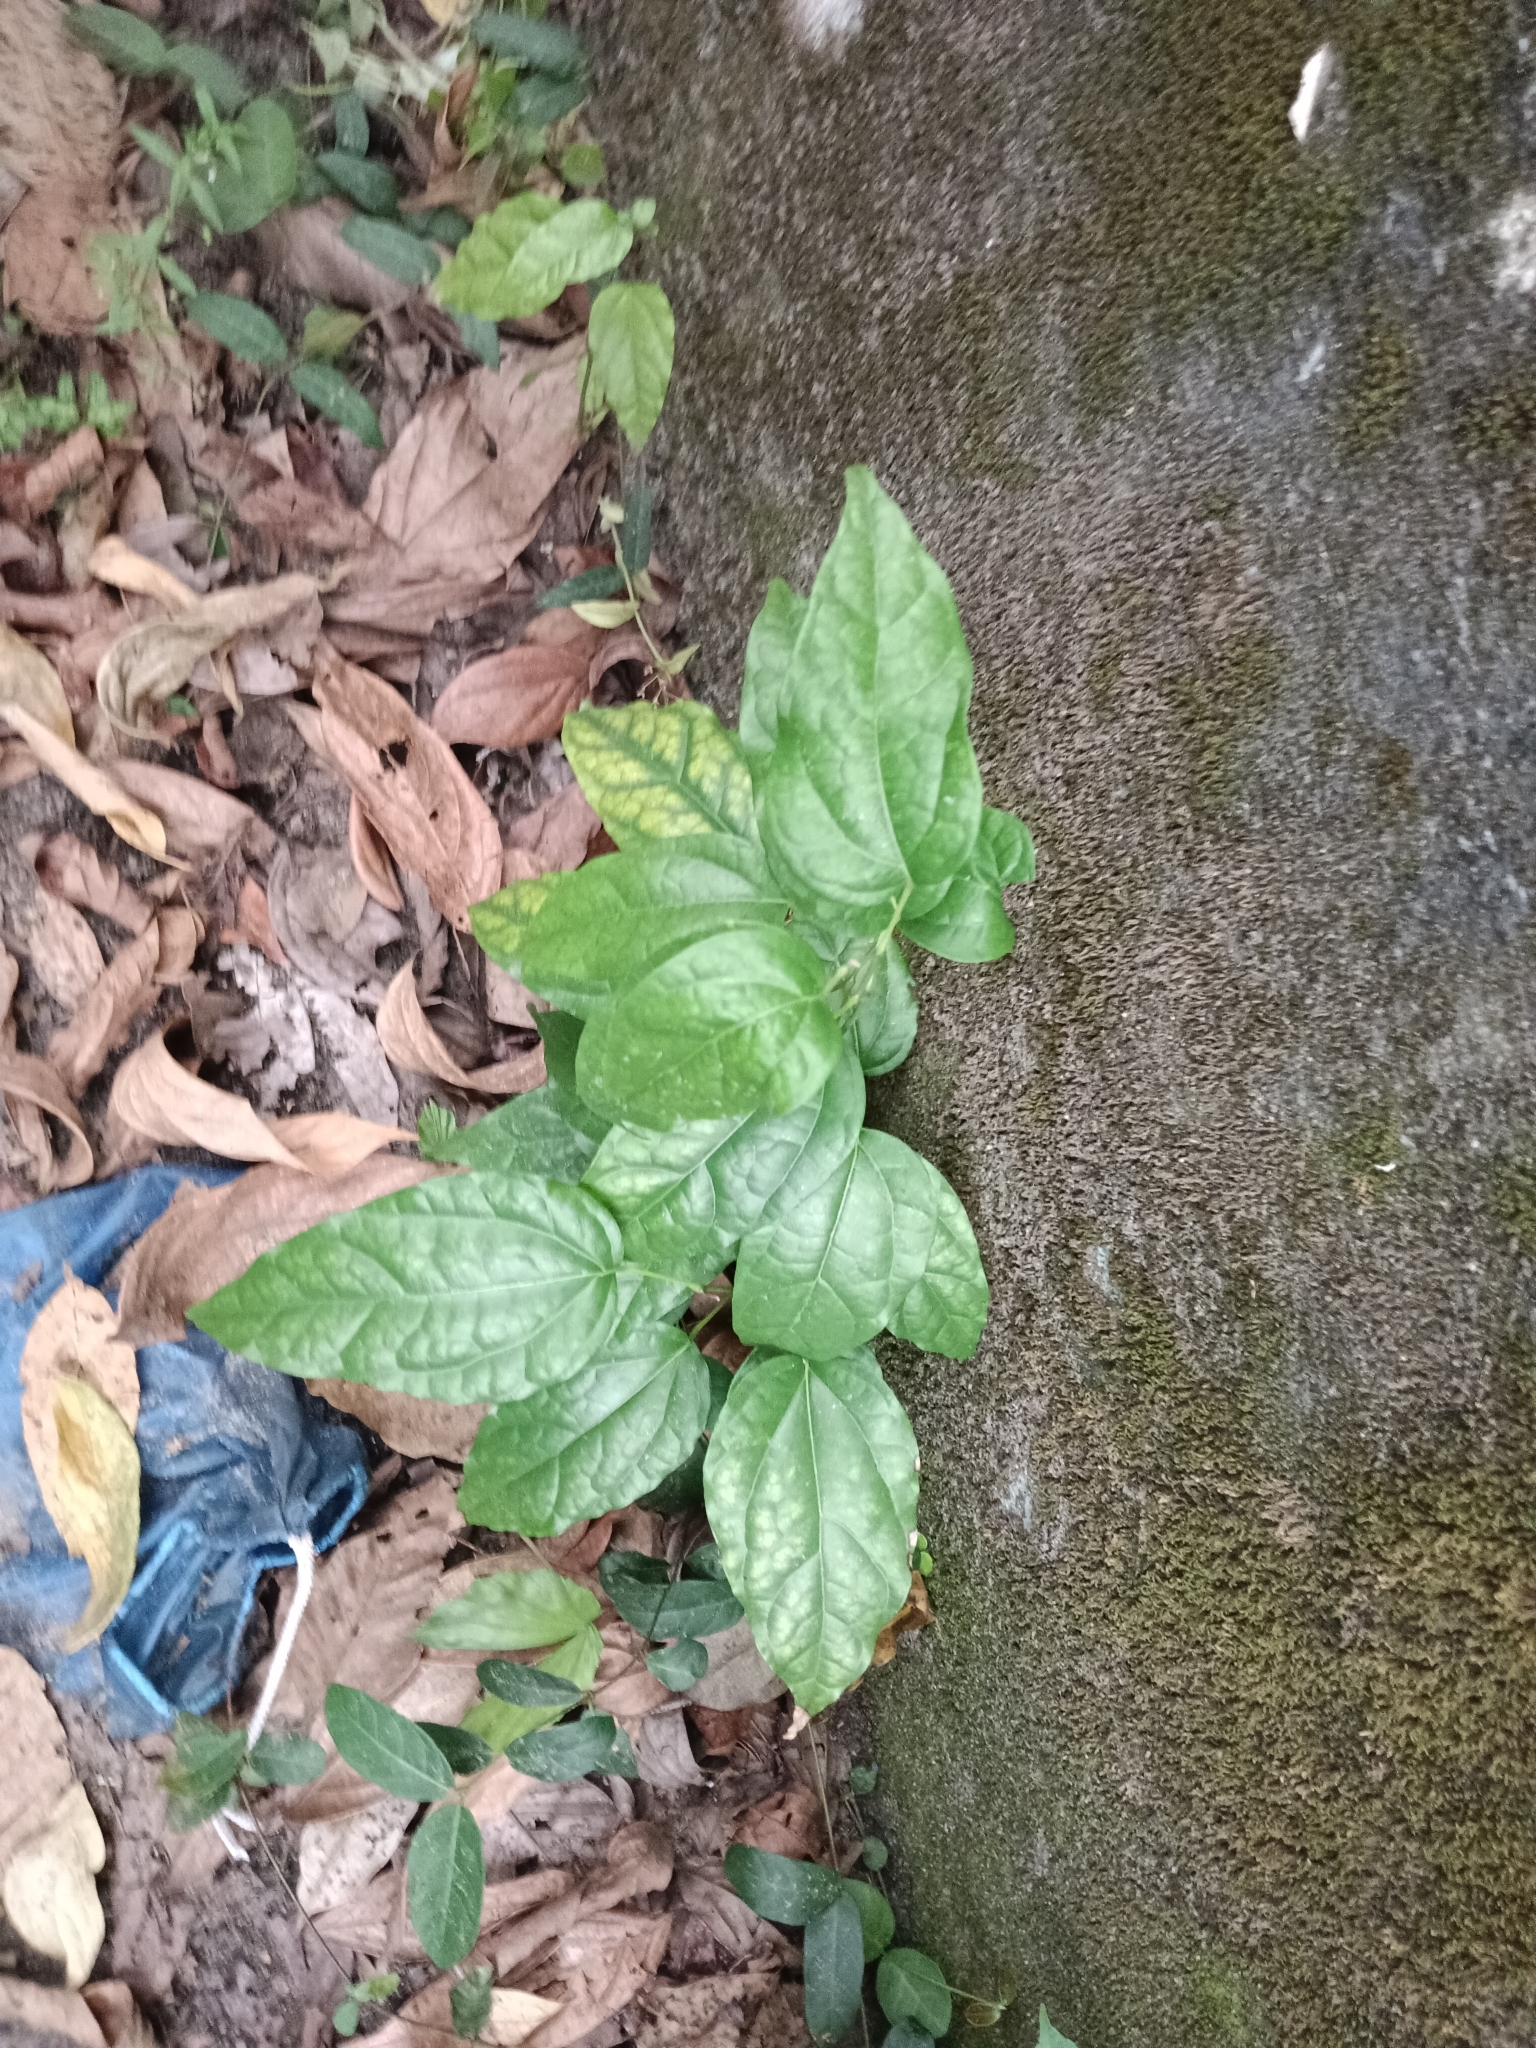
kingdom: Plantae
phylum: Tracheophyta
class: Magnoliopsida
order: Ranunculales
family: Menispermaceae
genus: Tiliacora
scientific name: Tiliacora acuminata
